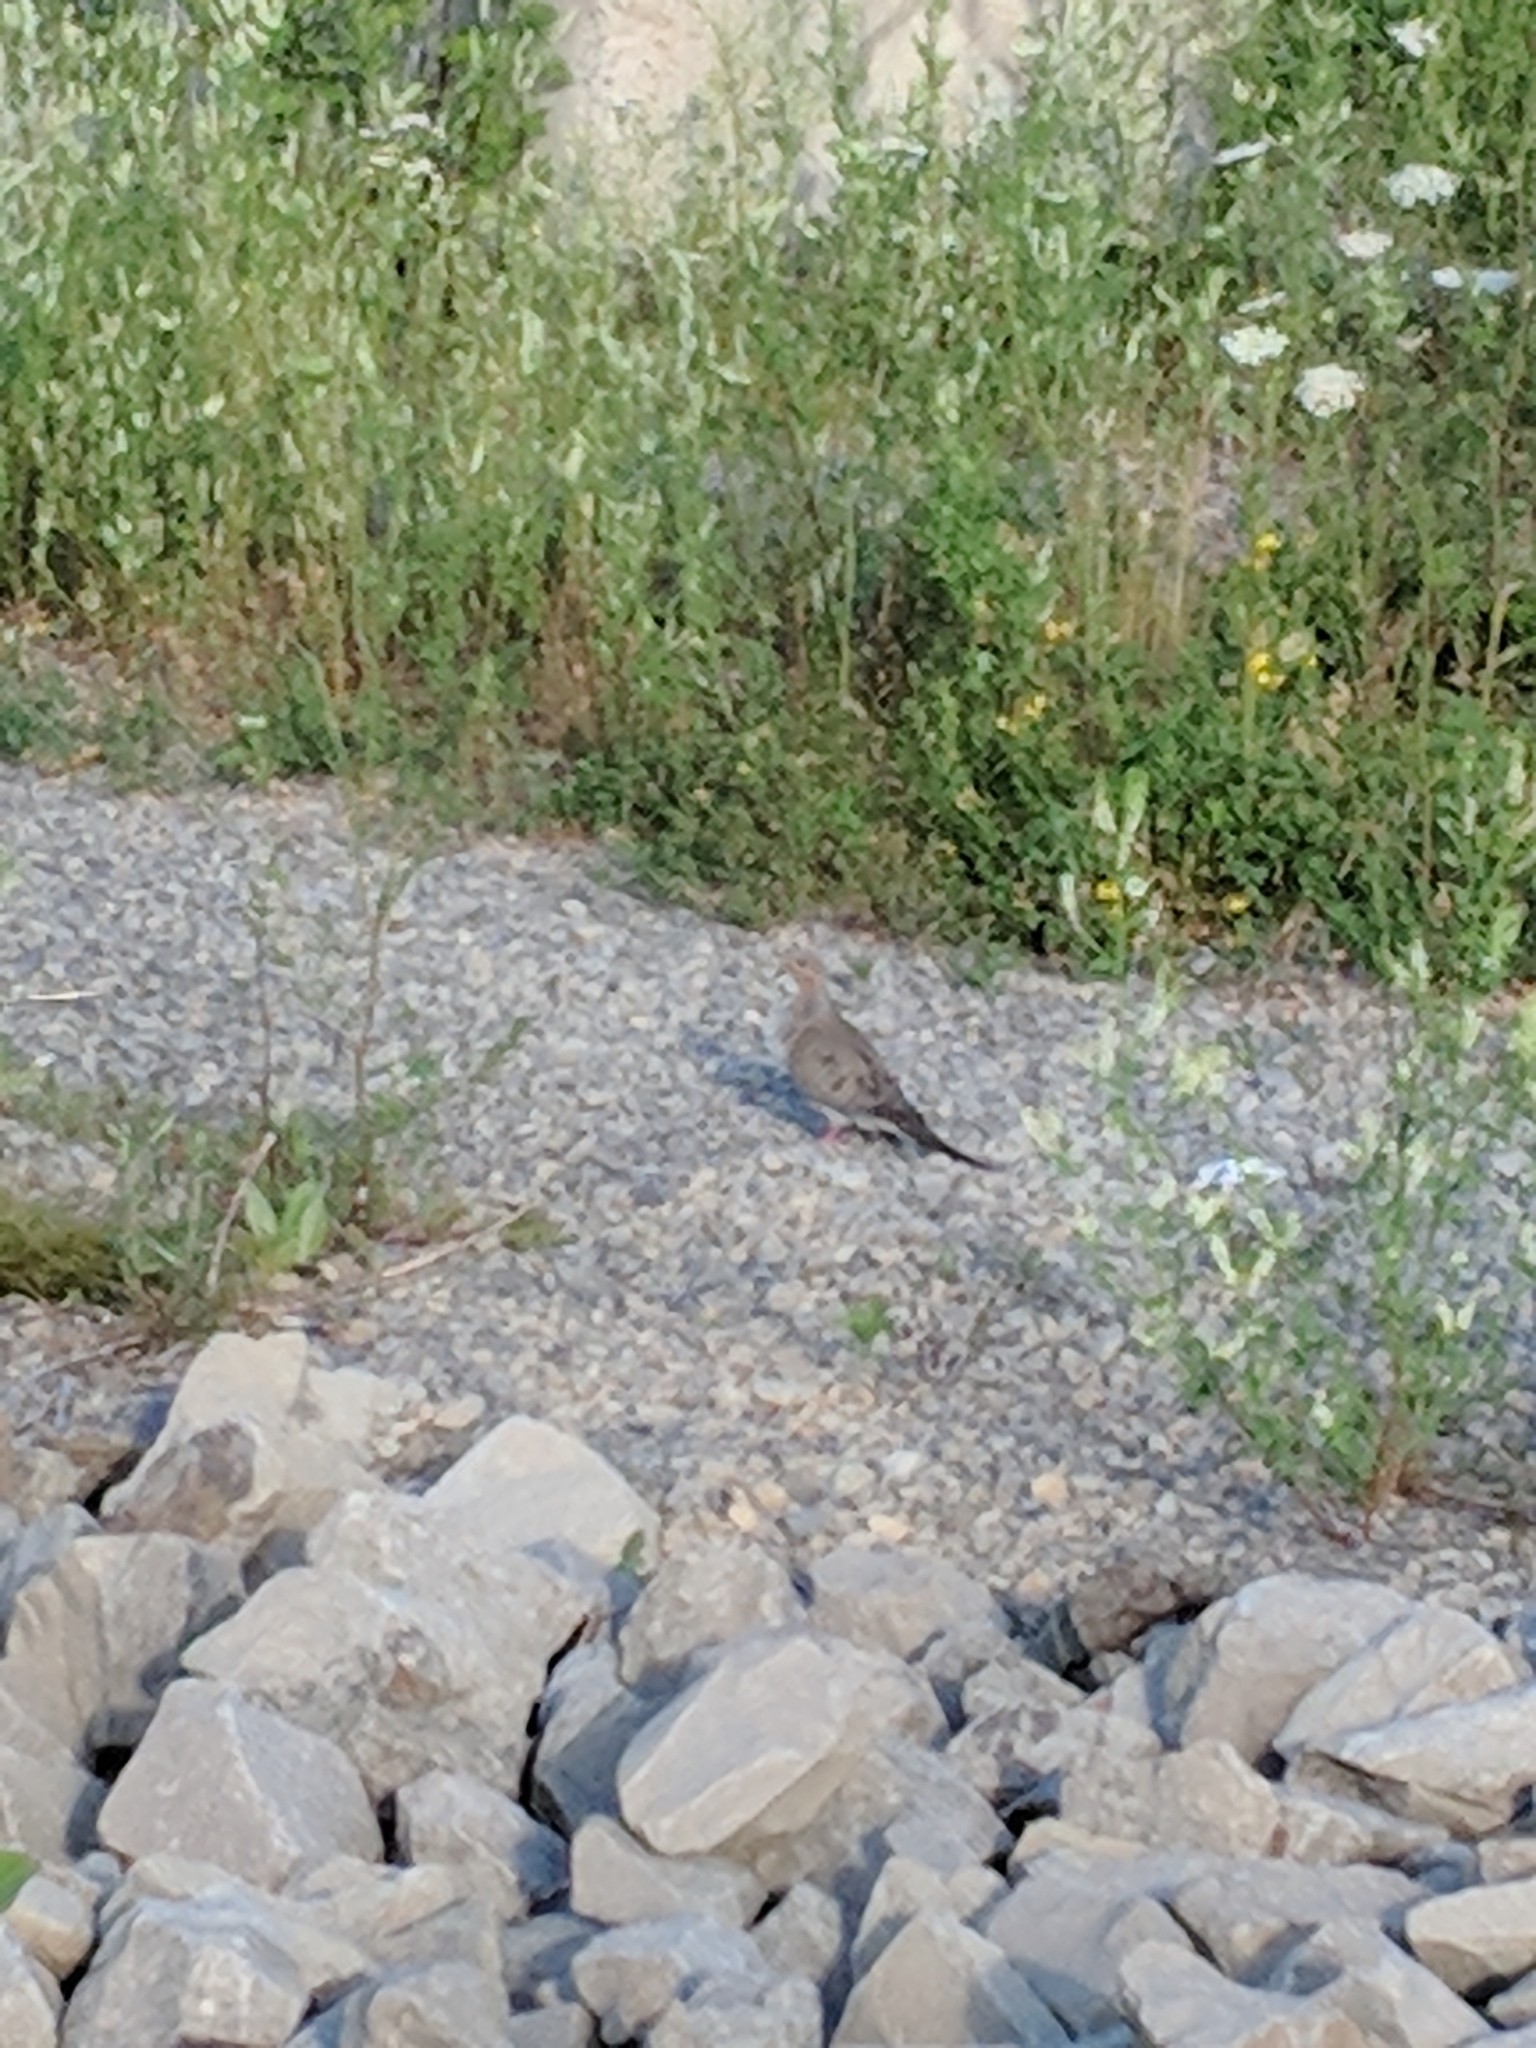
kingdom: Animalia
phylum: Chordata
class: Aves
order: Columbiformes
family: Columbidae
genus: Zenaida
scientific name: Zenaida macroura
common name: Mourning dove
